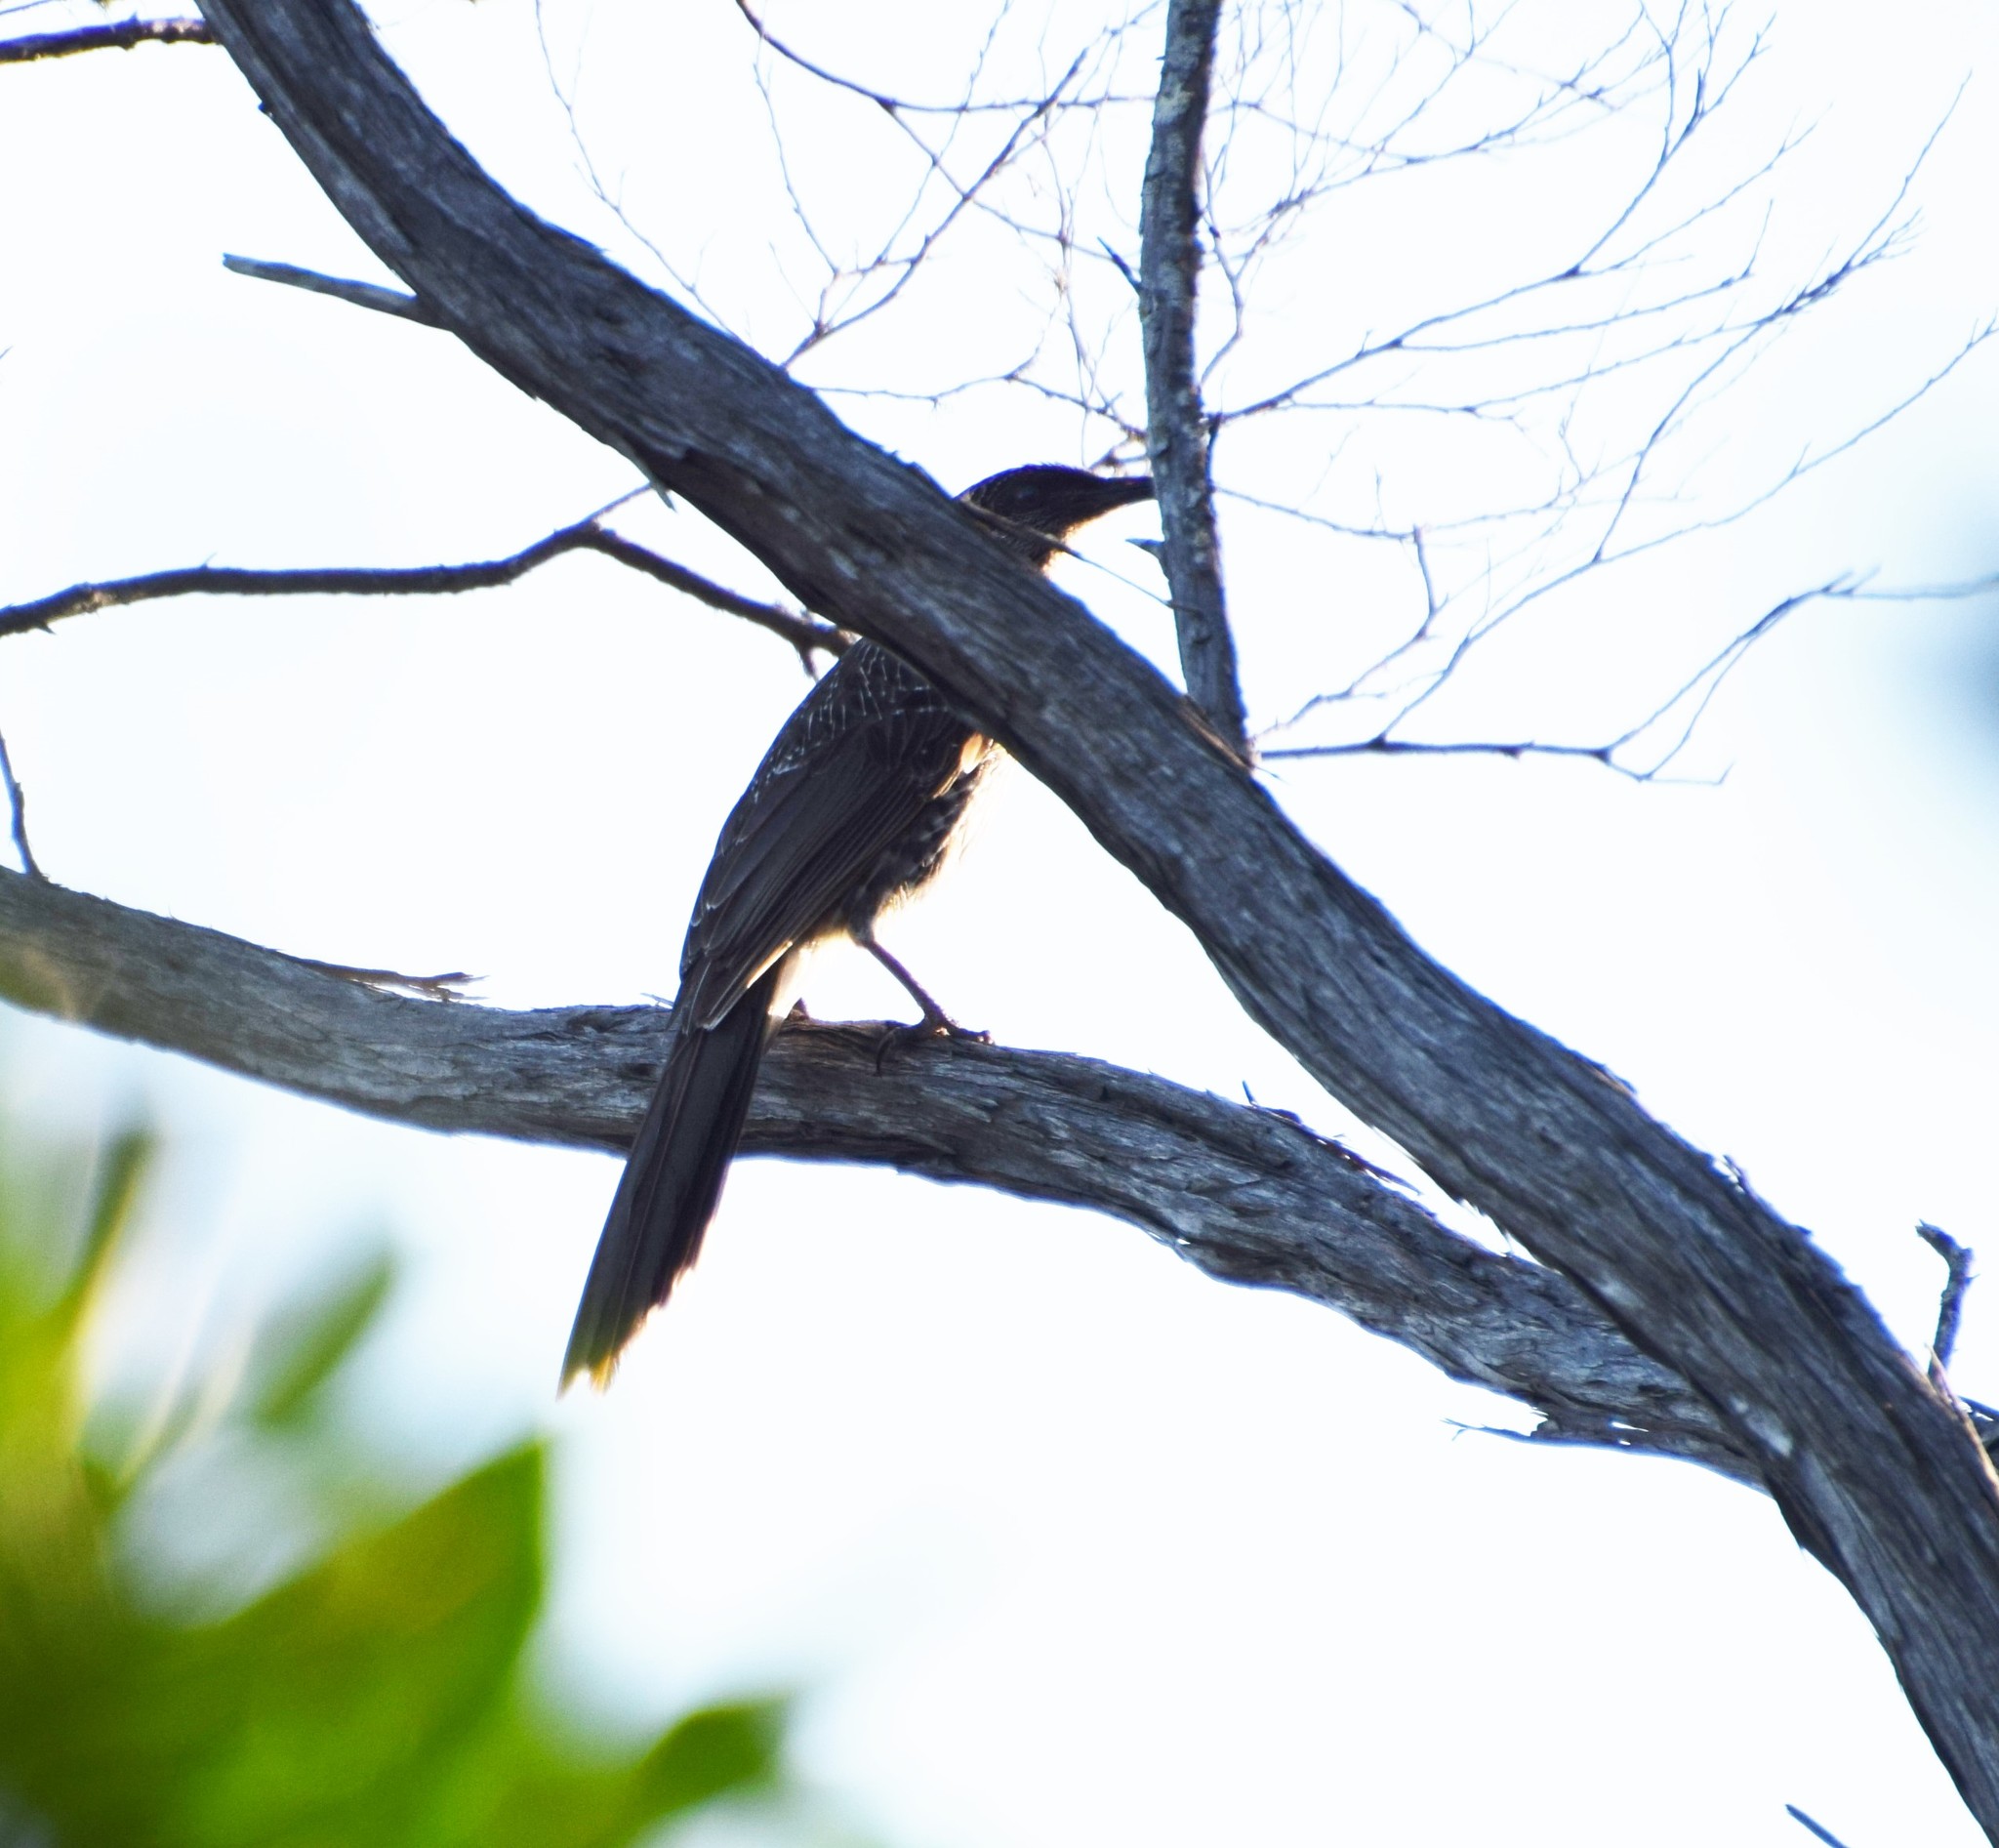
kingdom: Animalia
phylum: Chordata
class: Aves
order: Passeriformes
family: Meliphagidae
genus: Anthochaera
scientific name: Anthochaera chrysoptera
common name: Little wattlebird
